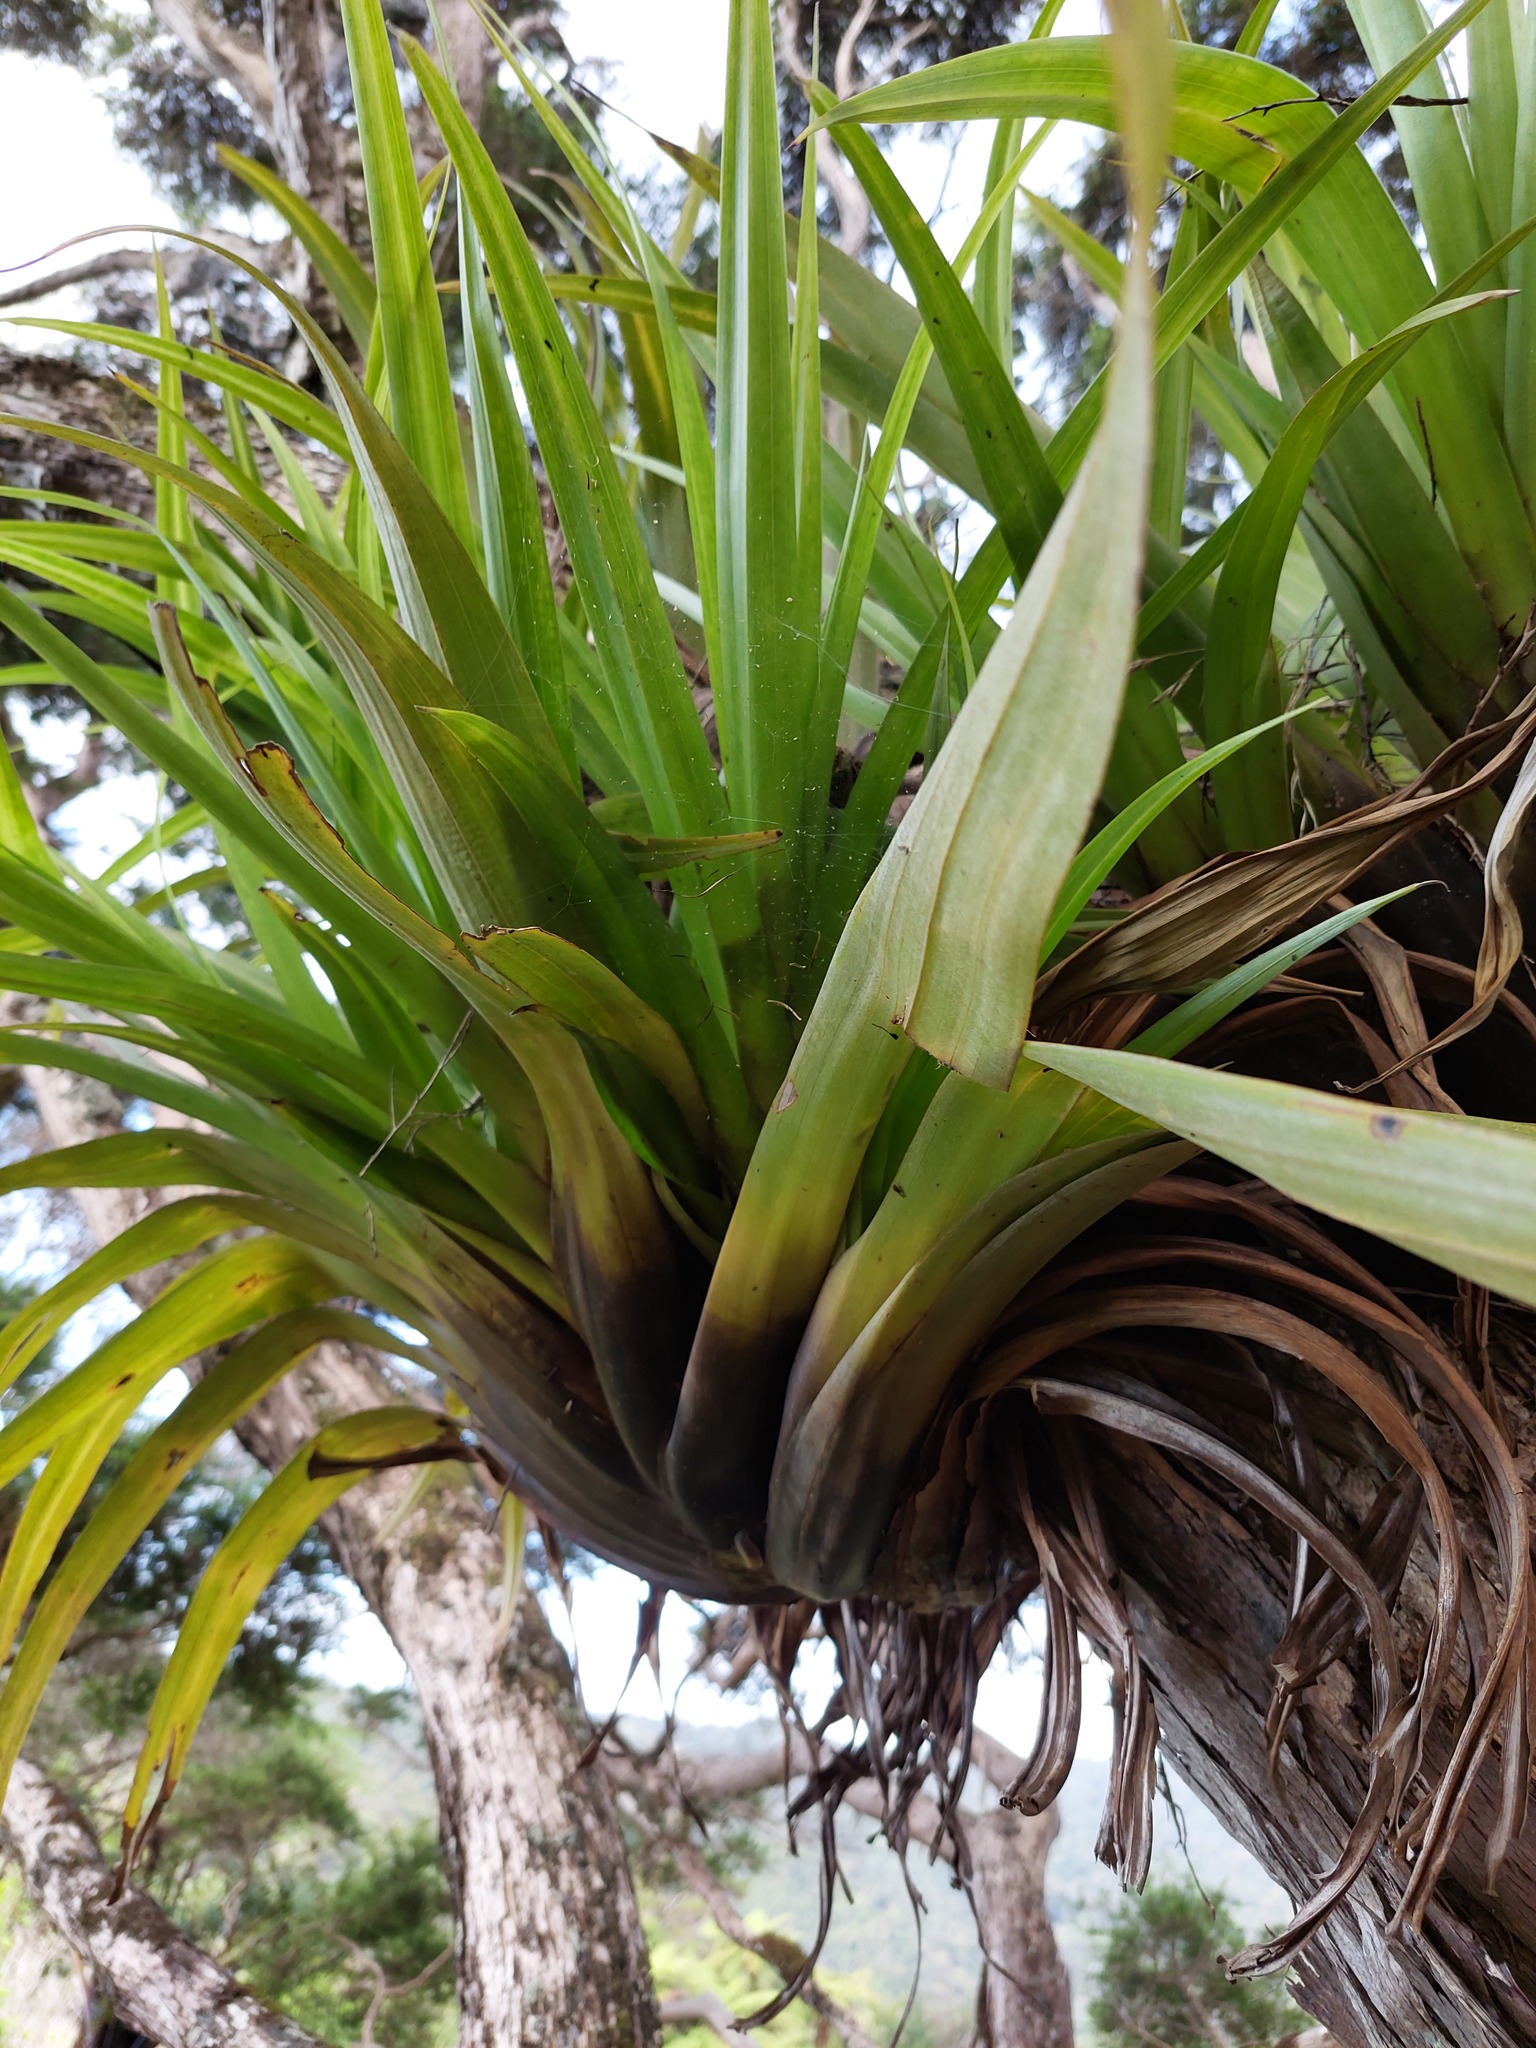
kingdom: Plantae
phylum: Tracheophyta
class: Liliopsida
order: Asparagales
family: Asteliaceae
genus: Astelia
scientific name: Astelia hastata
